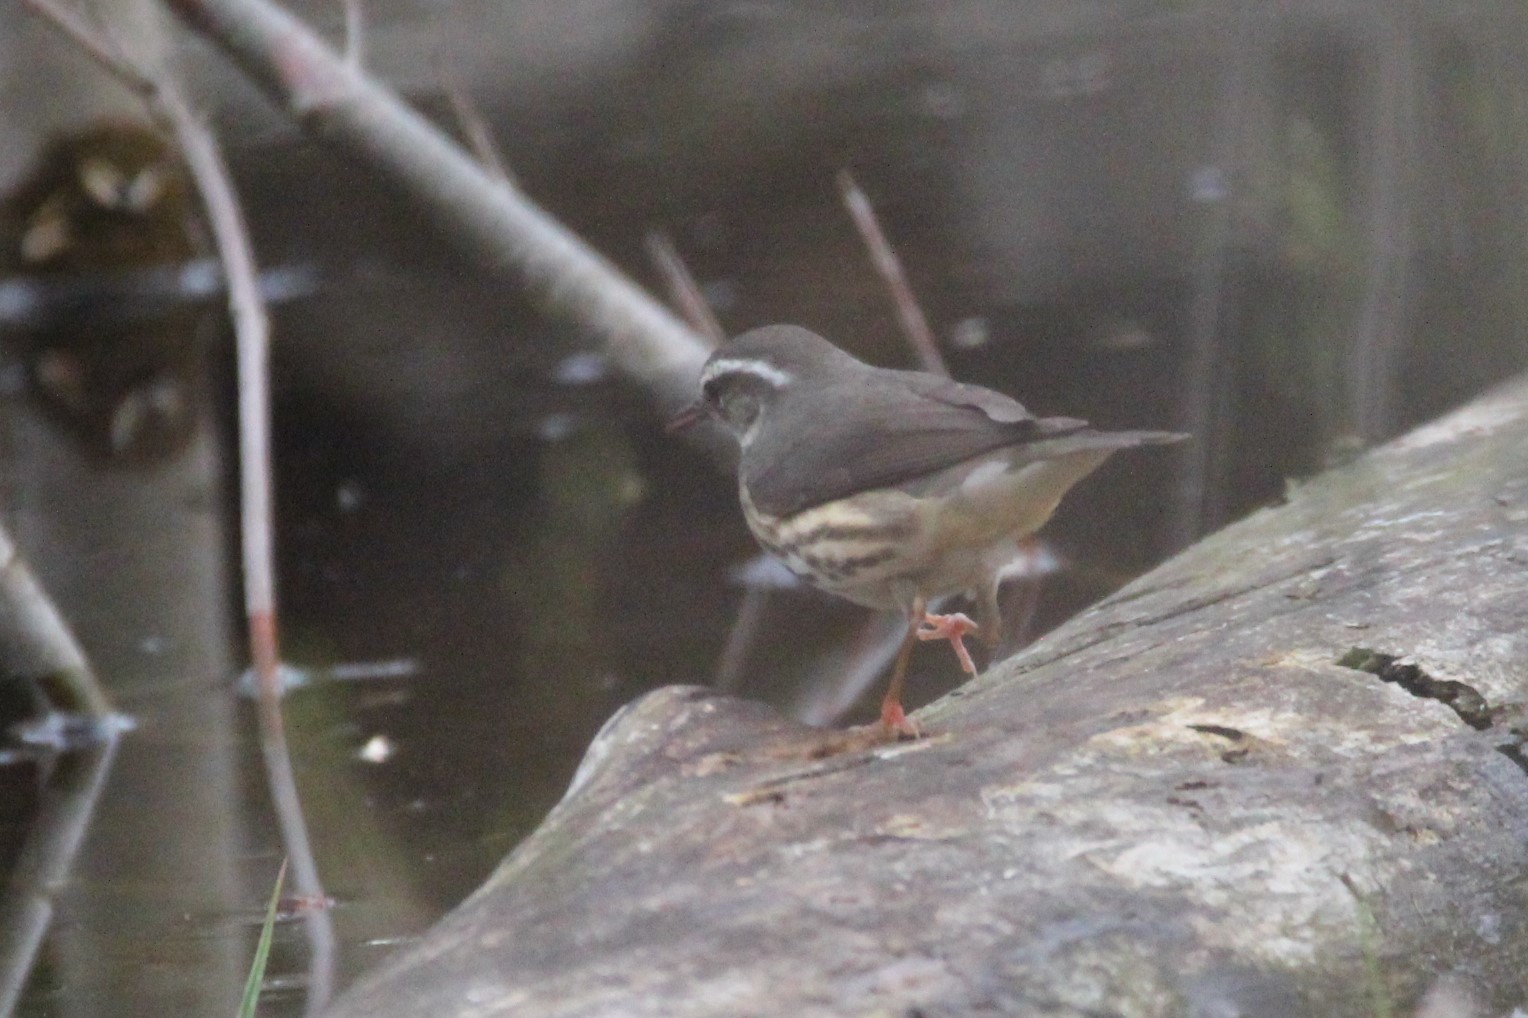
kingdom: Animalia
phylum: Chordata
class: Aves
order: Passeriformes
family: Parulidae
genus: Parkesia
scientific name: Parkesia motacilla
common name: Louisiana waterthrush
